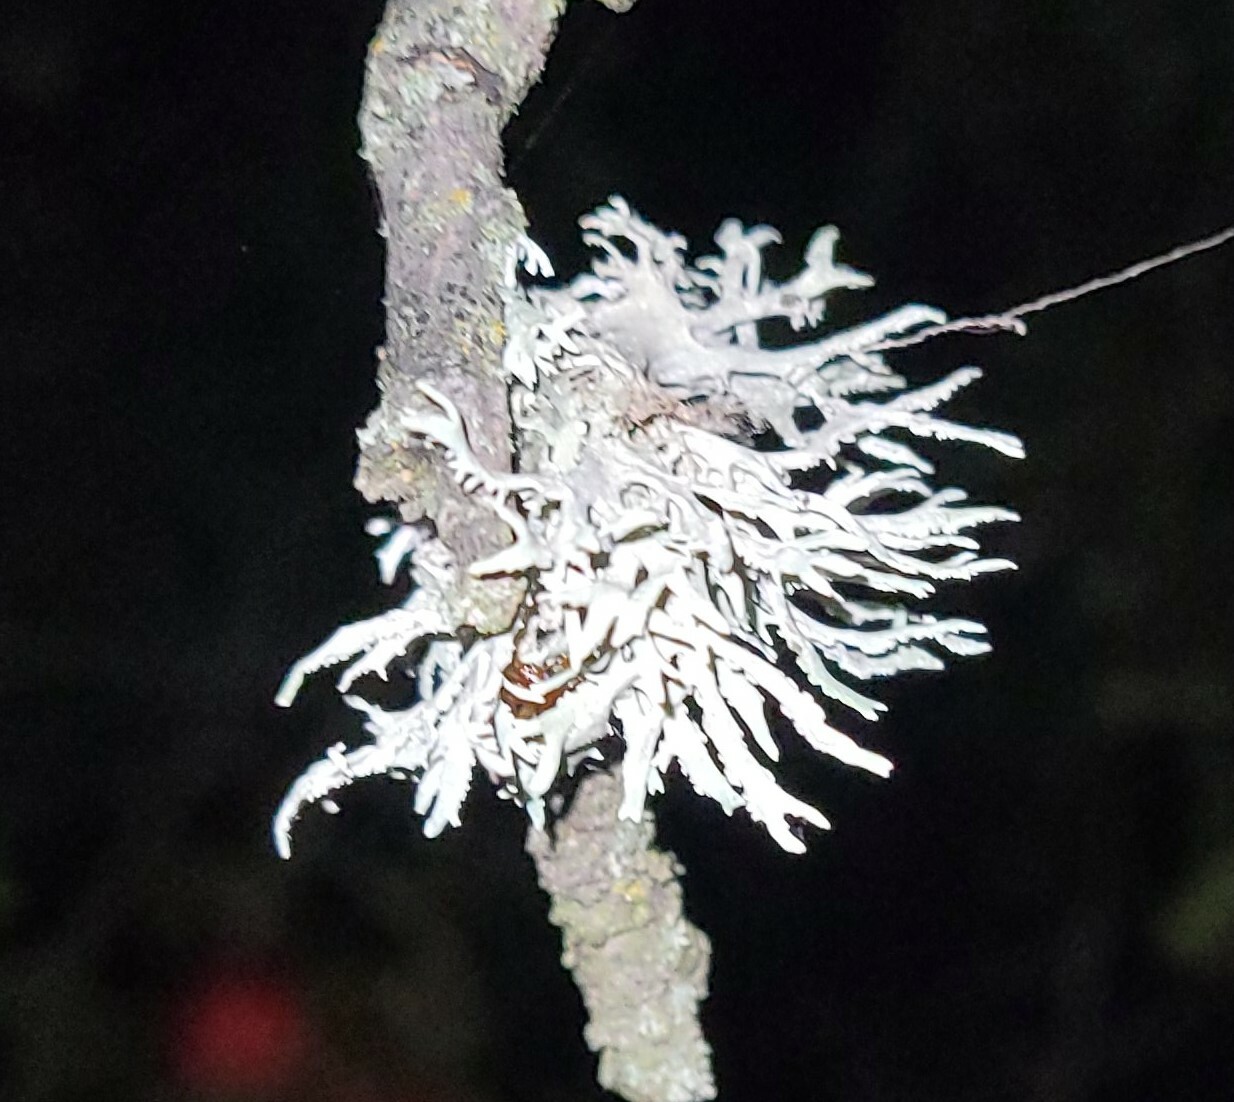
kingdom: Fungi
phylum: Ascomycota
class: Lecanoromycetes
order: Lecanorales
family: Parmeliaceae
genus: Evernia
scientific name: Evernia prunastri
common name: Oak moss
